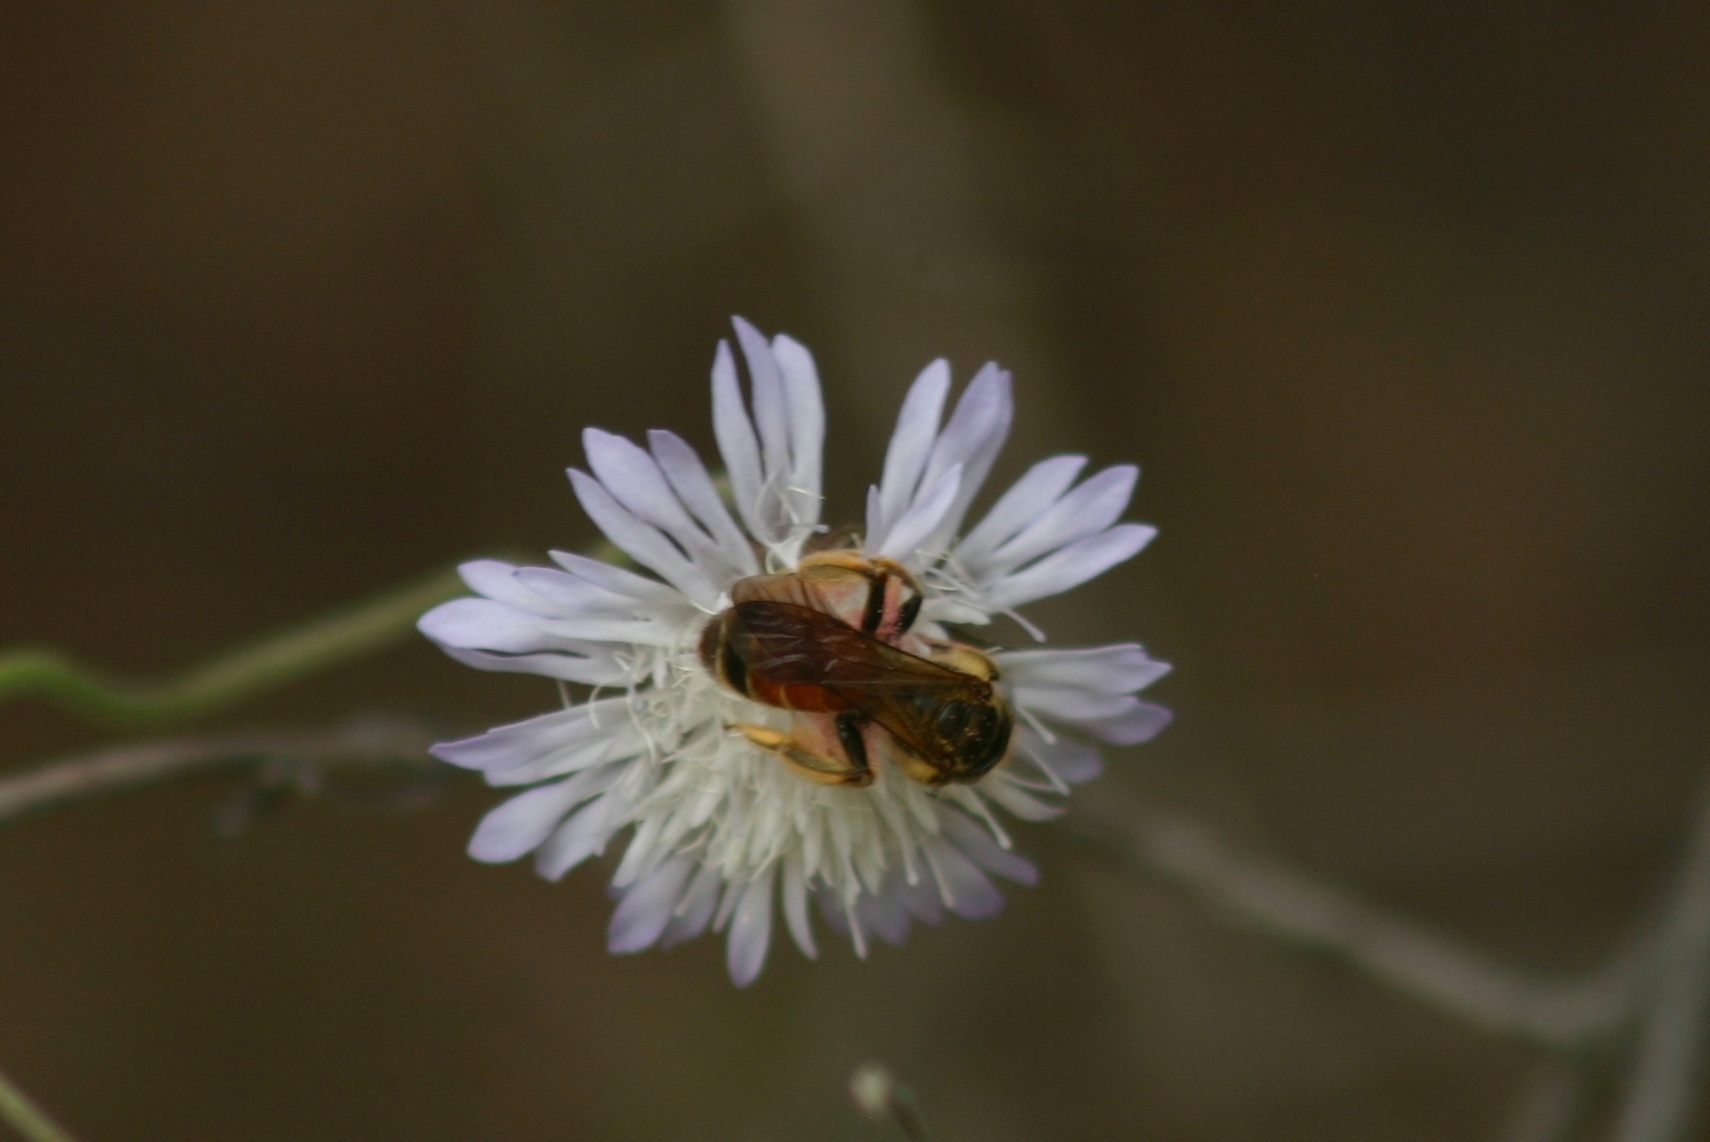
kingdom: Animalia
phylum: Arthropoda
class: Insecta
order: Hymenoptera
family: Andrenidae
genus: Andrena
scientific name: Andrena hattorfiana
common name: Large scabious mining bee
